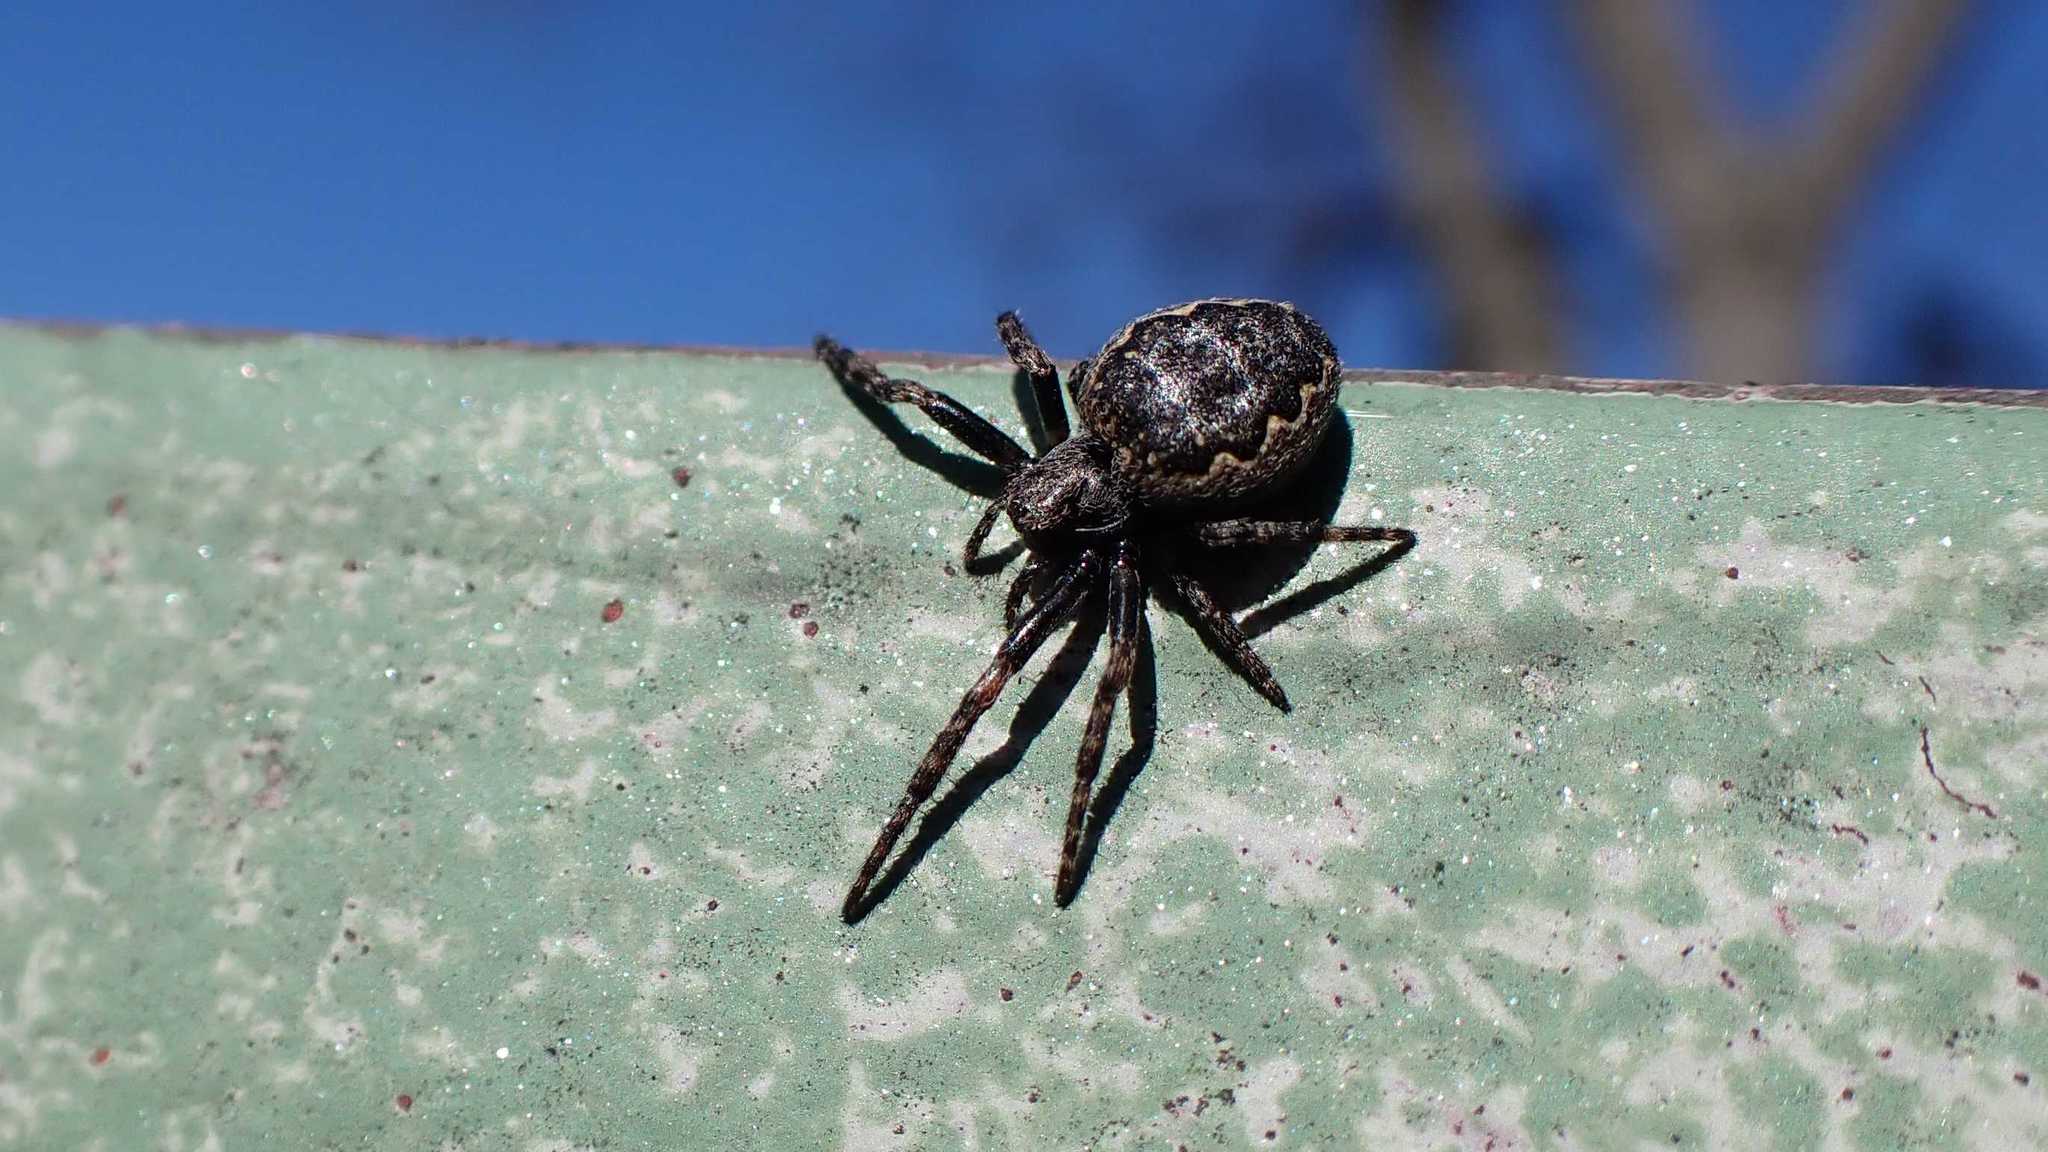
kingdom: Animalia
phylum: Arthropoda
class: Arachnida
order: Araneae
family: Araneidae
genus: Nuctenea
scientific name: Nuctenea umbratica
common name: Toad spider
